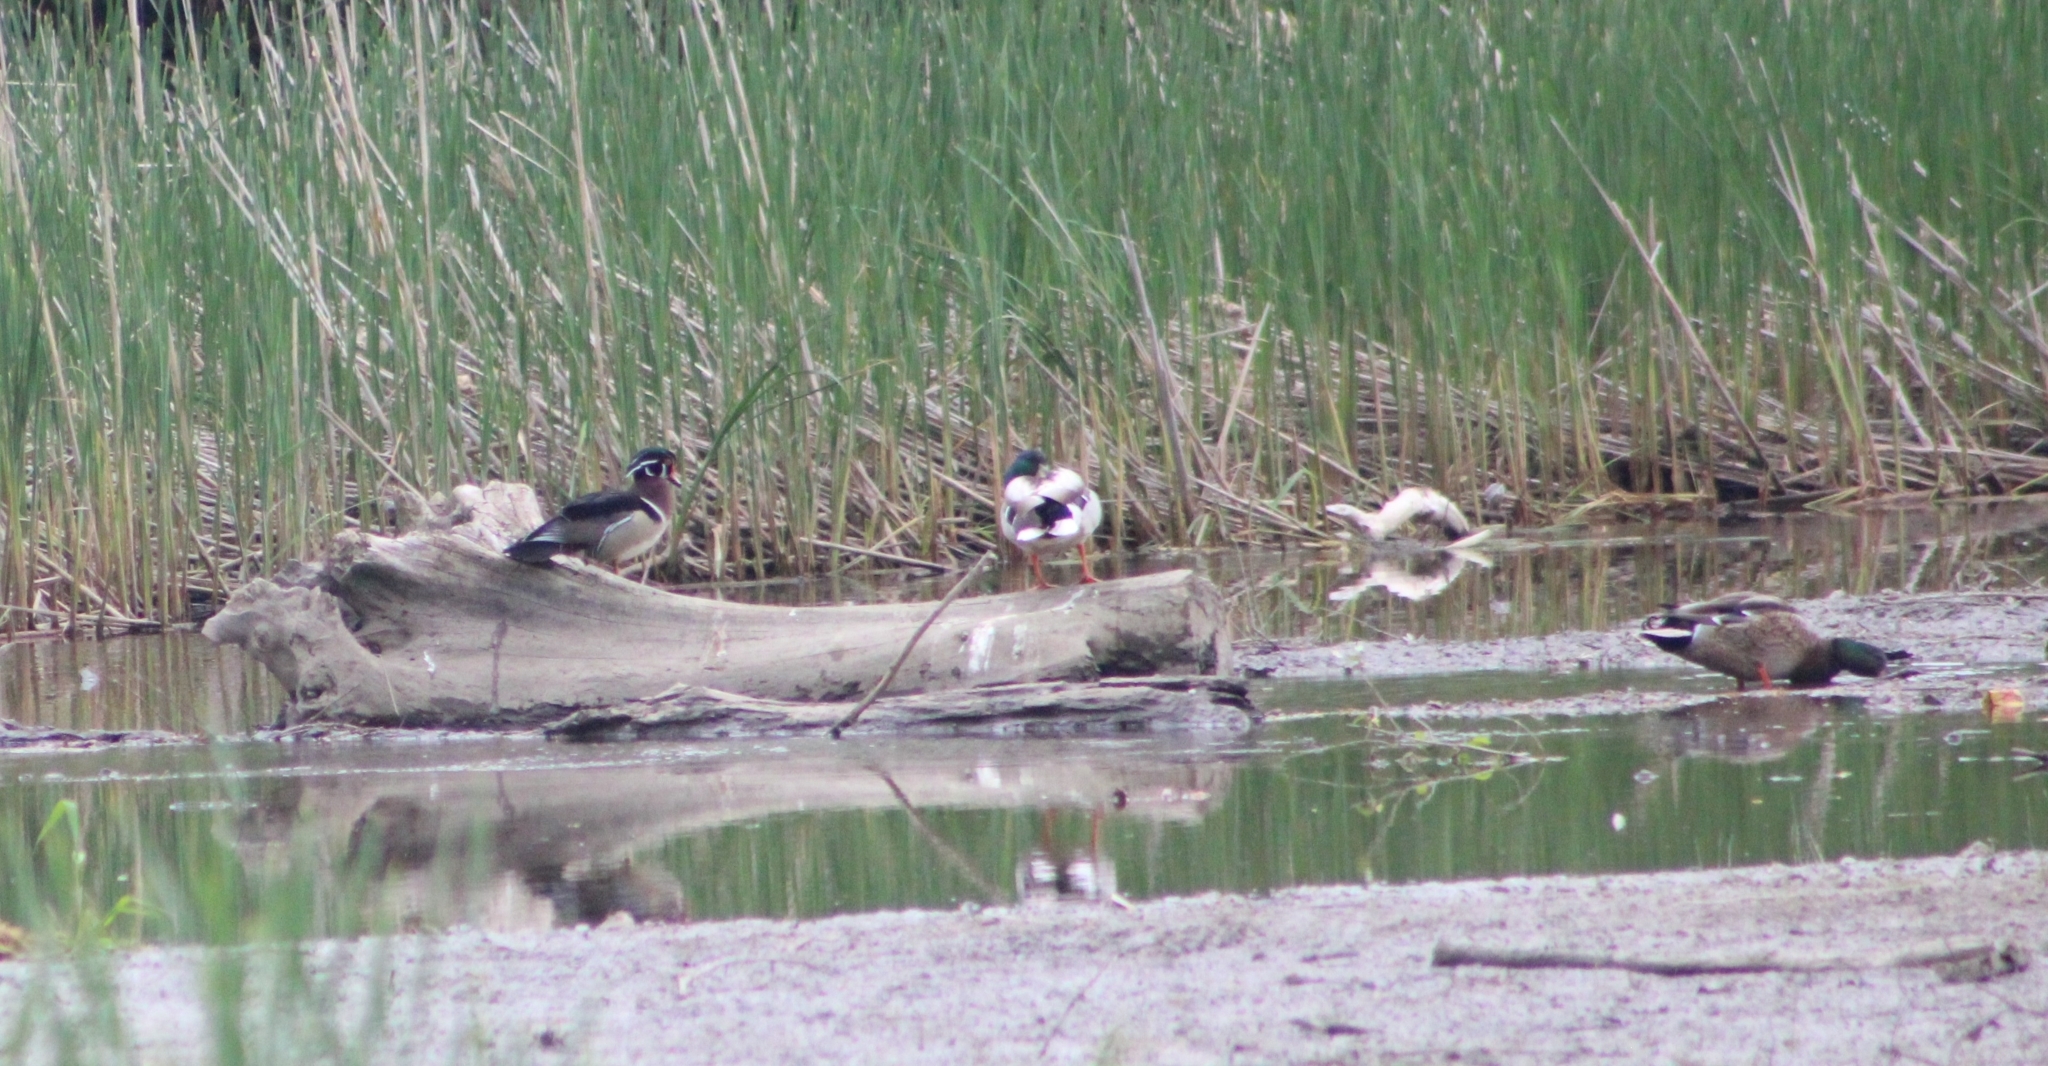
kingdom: Animalia
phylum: Chordata
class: Aves
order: Anseriformes
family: Anatidae
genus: Aix
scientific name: Aix sponsa
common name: Wood duck
